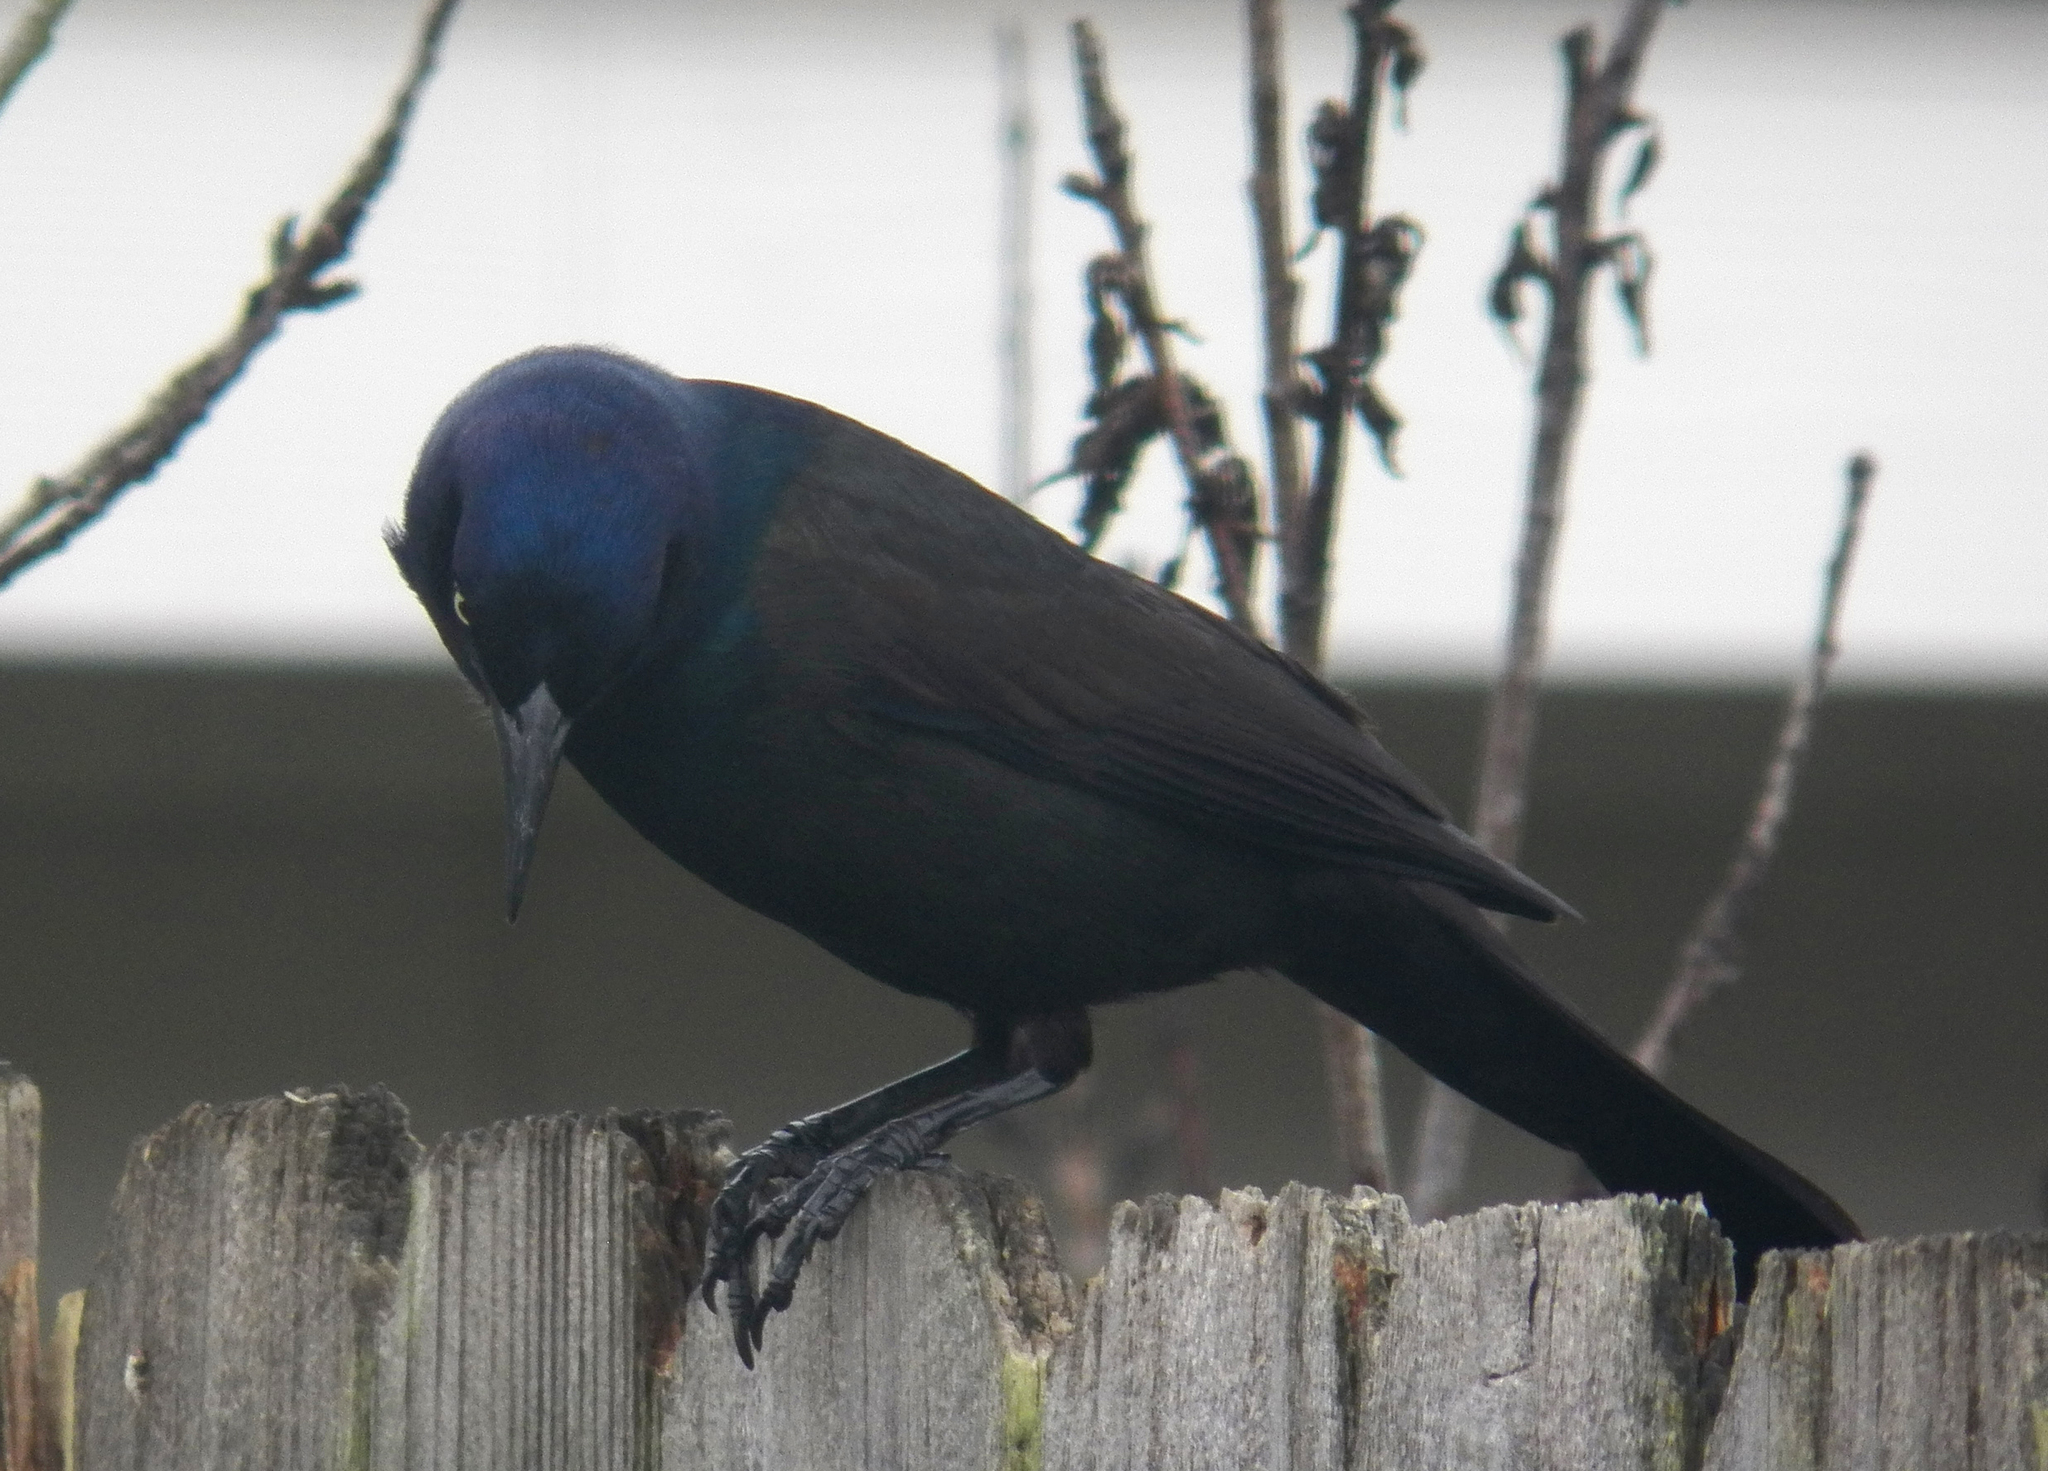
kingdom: Animalia
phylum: Chordata
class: Aves
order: Passeriformes
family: Icteridae
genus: Quiscalus
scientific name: Quiscalus quiscula
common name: Common grackle
